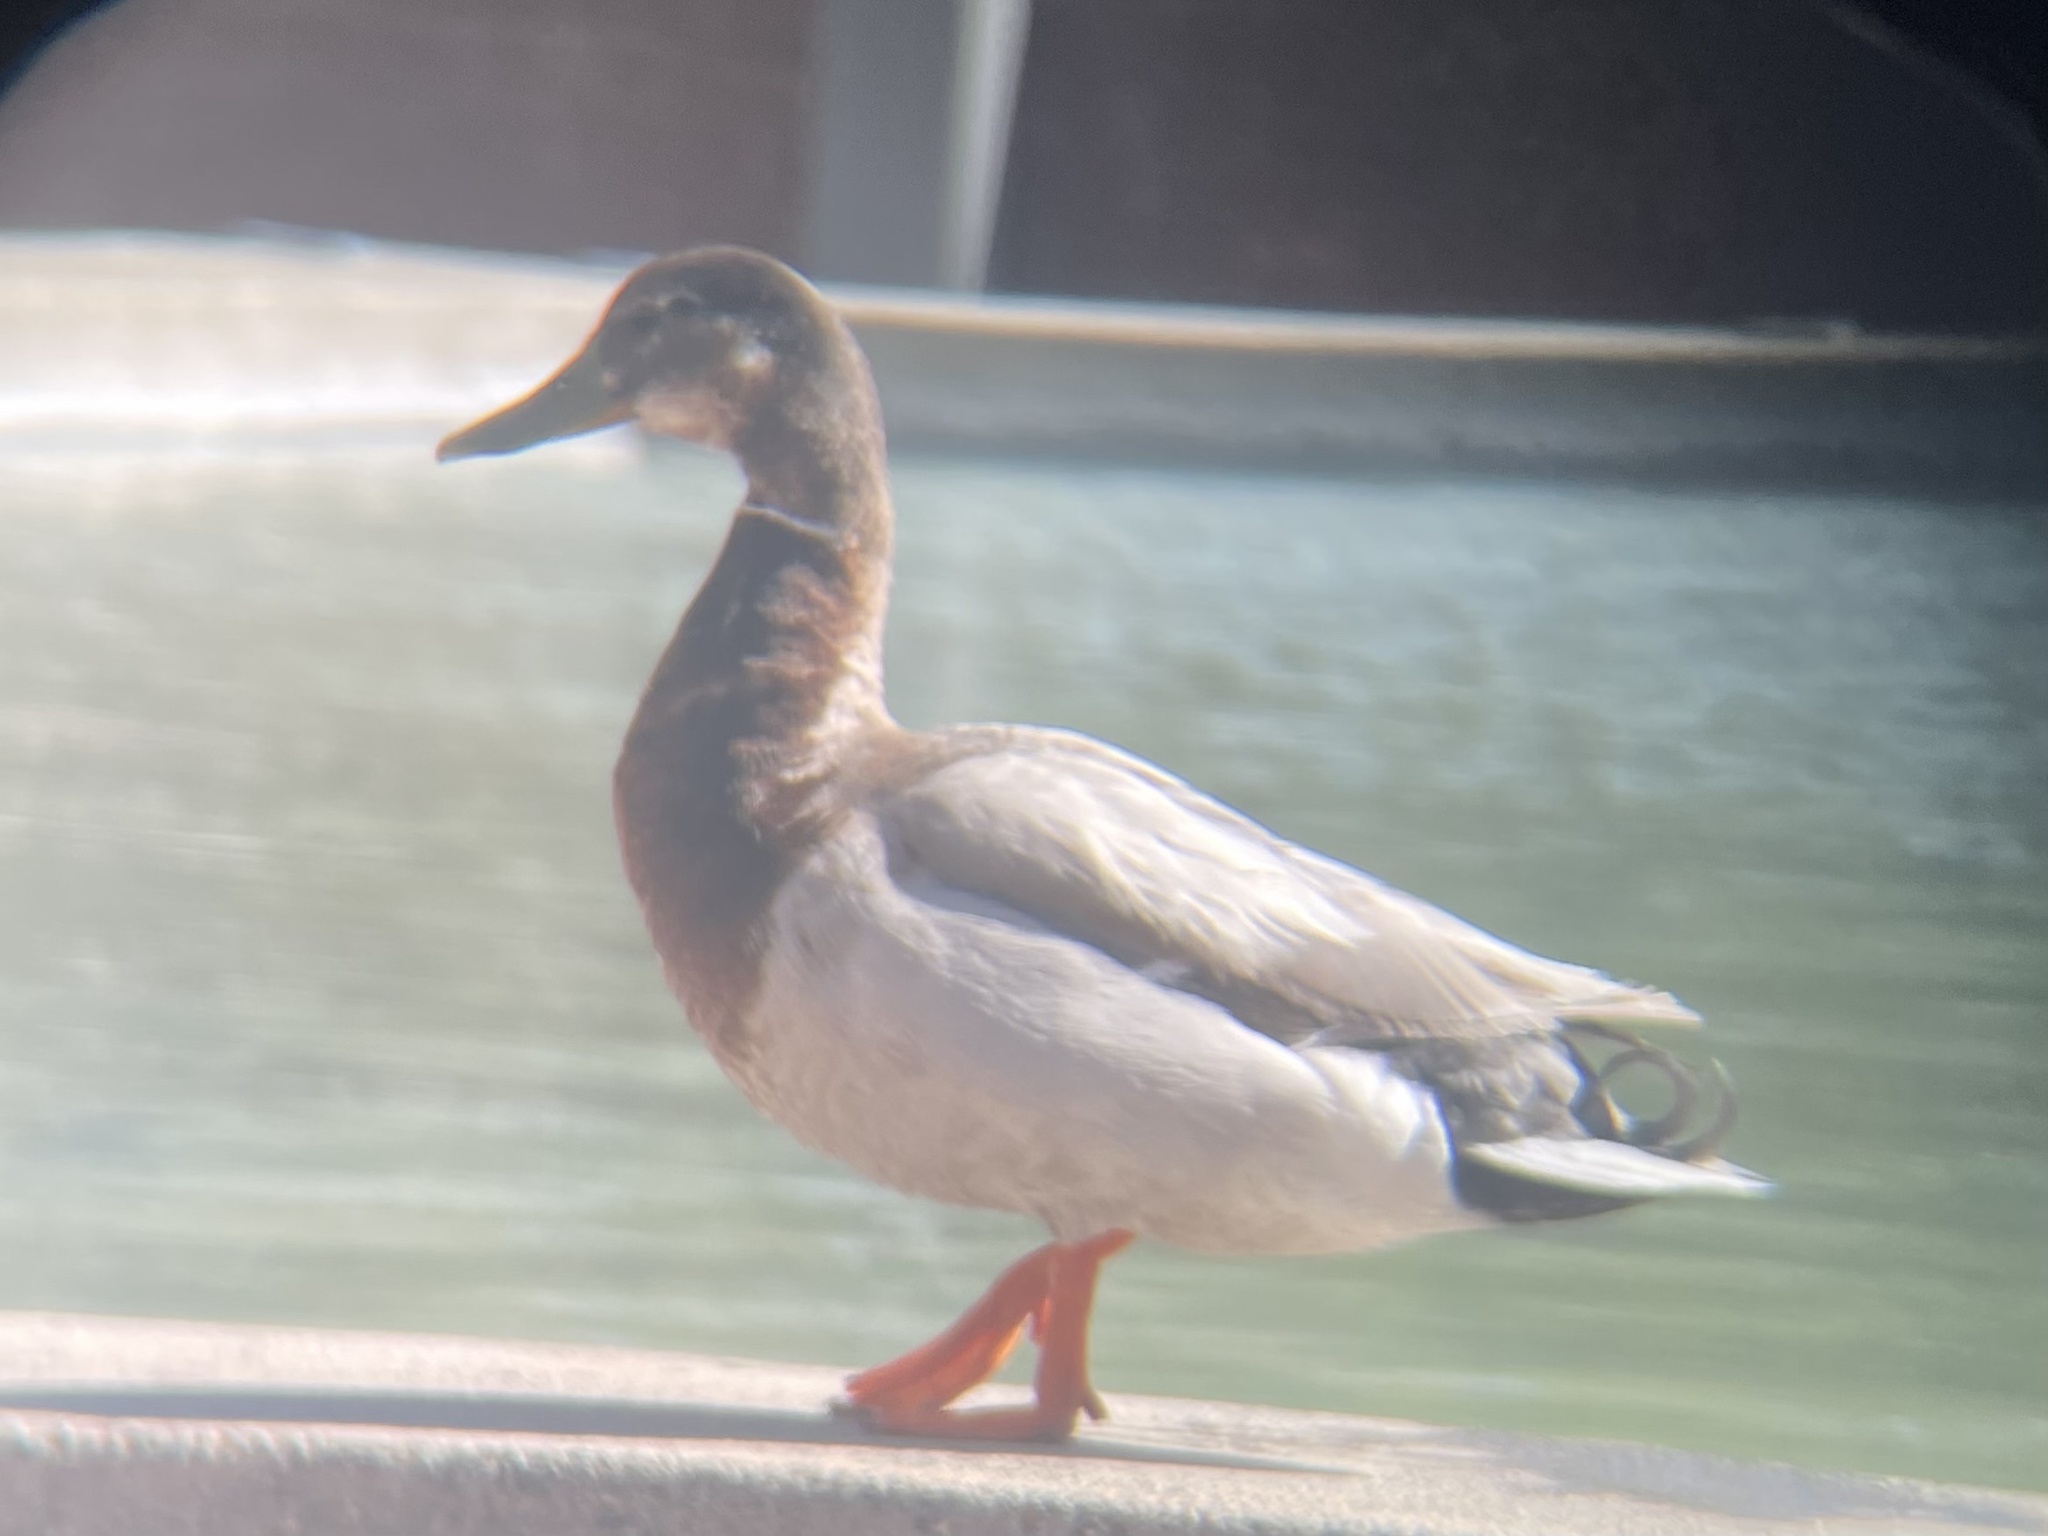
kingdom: Animalia
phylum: Chordata
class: Aves
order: Anseriformes
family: Anatidae
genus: Anas
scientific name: Anas platyrhynchos
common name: Mallard
